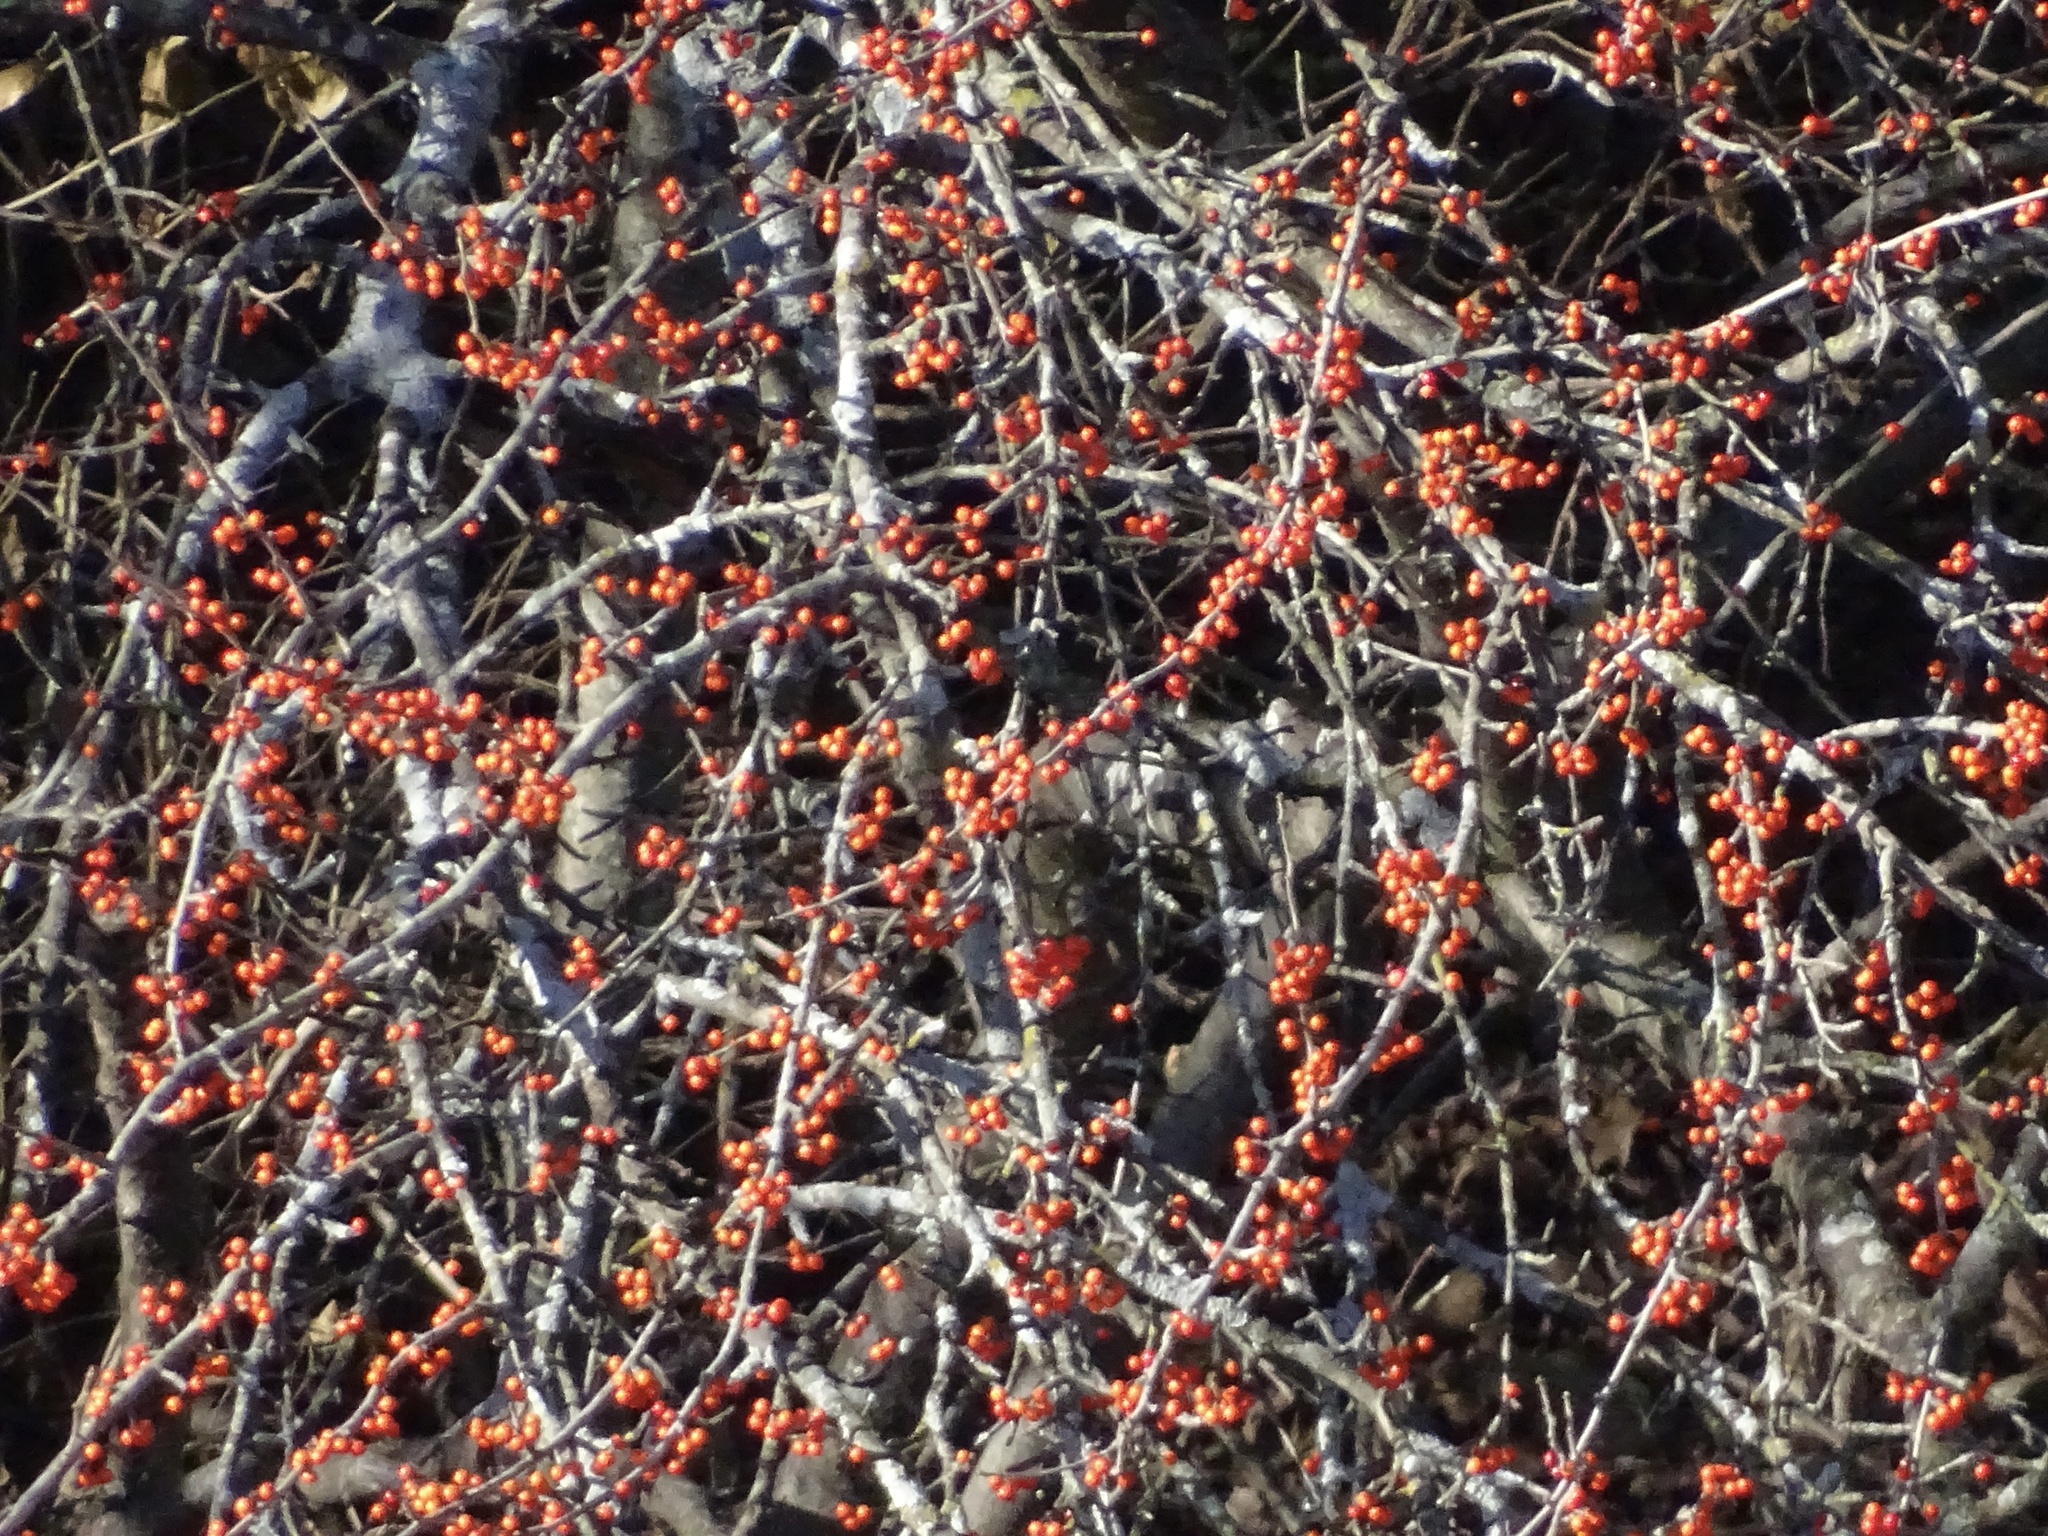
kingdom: Plantae
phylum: Tracheophyta
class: Magnoliopsida
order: Aquifoliales
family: Aquifoliaceae
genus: Ilex
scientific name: Ilex decidua
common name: Possum-haw
